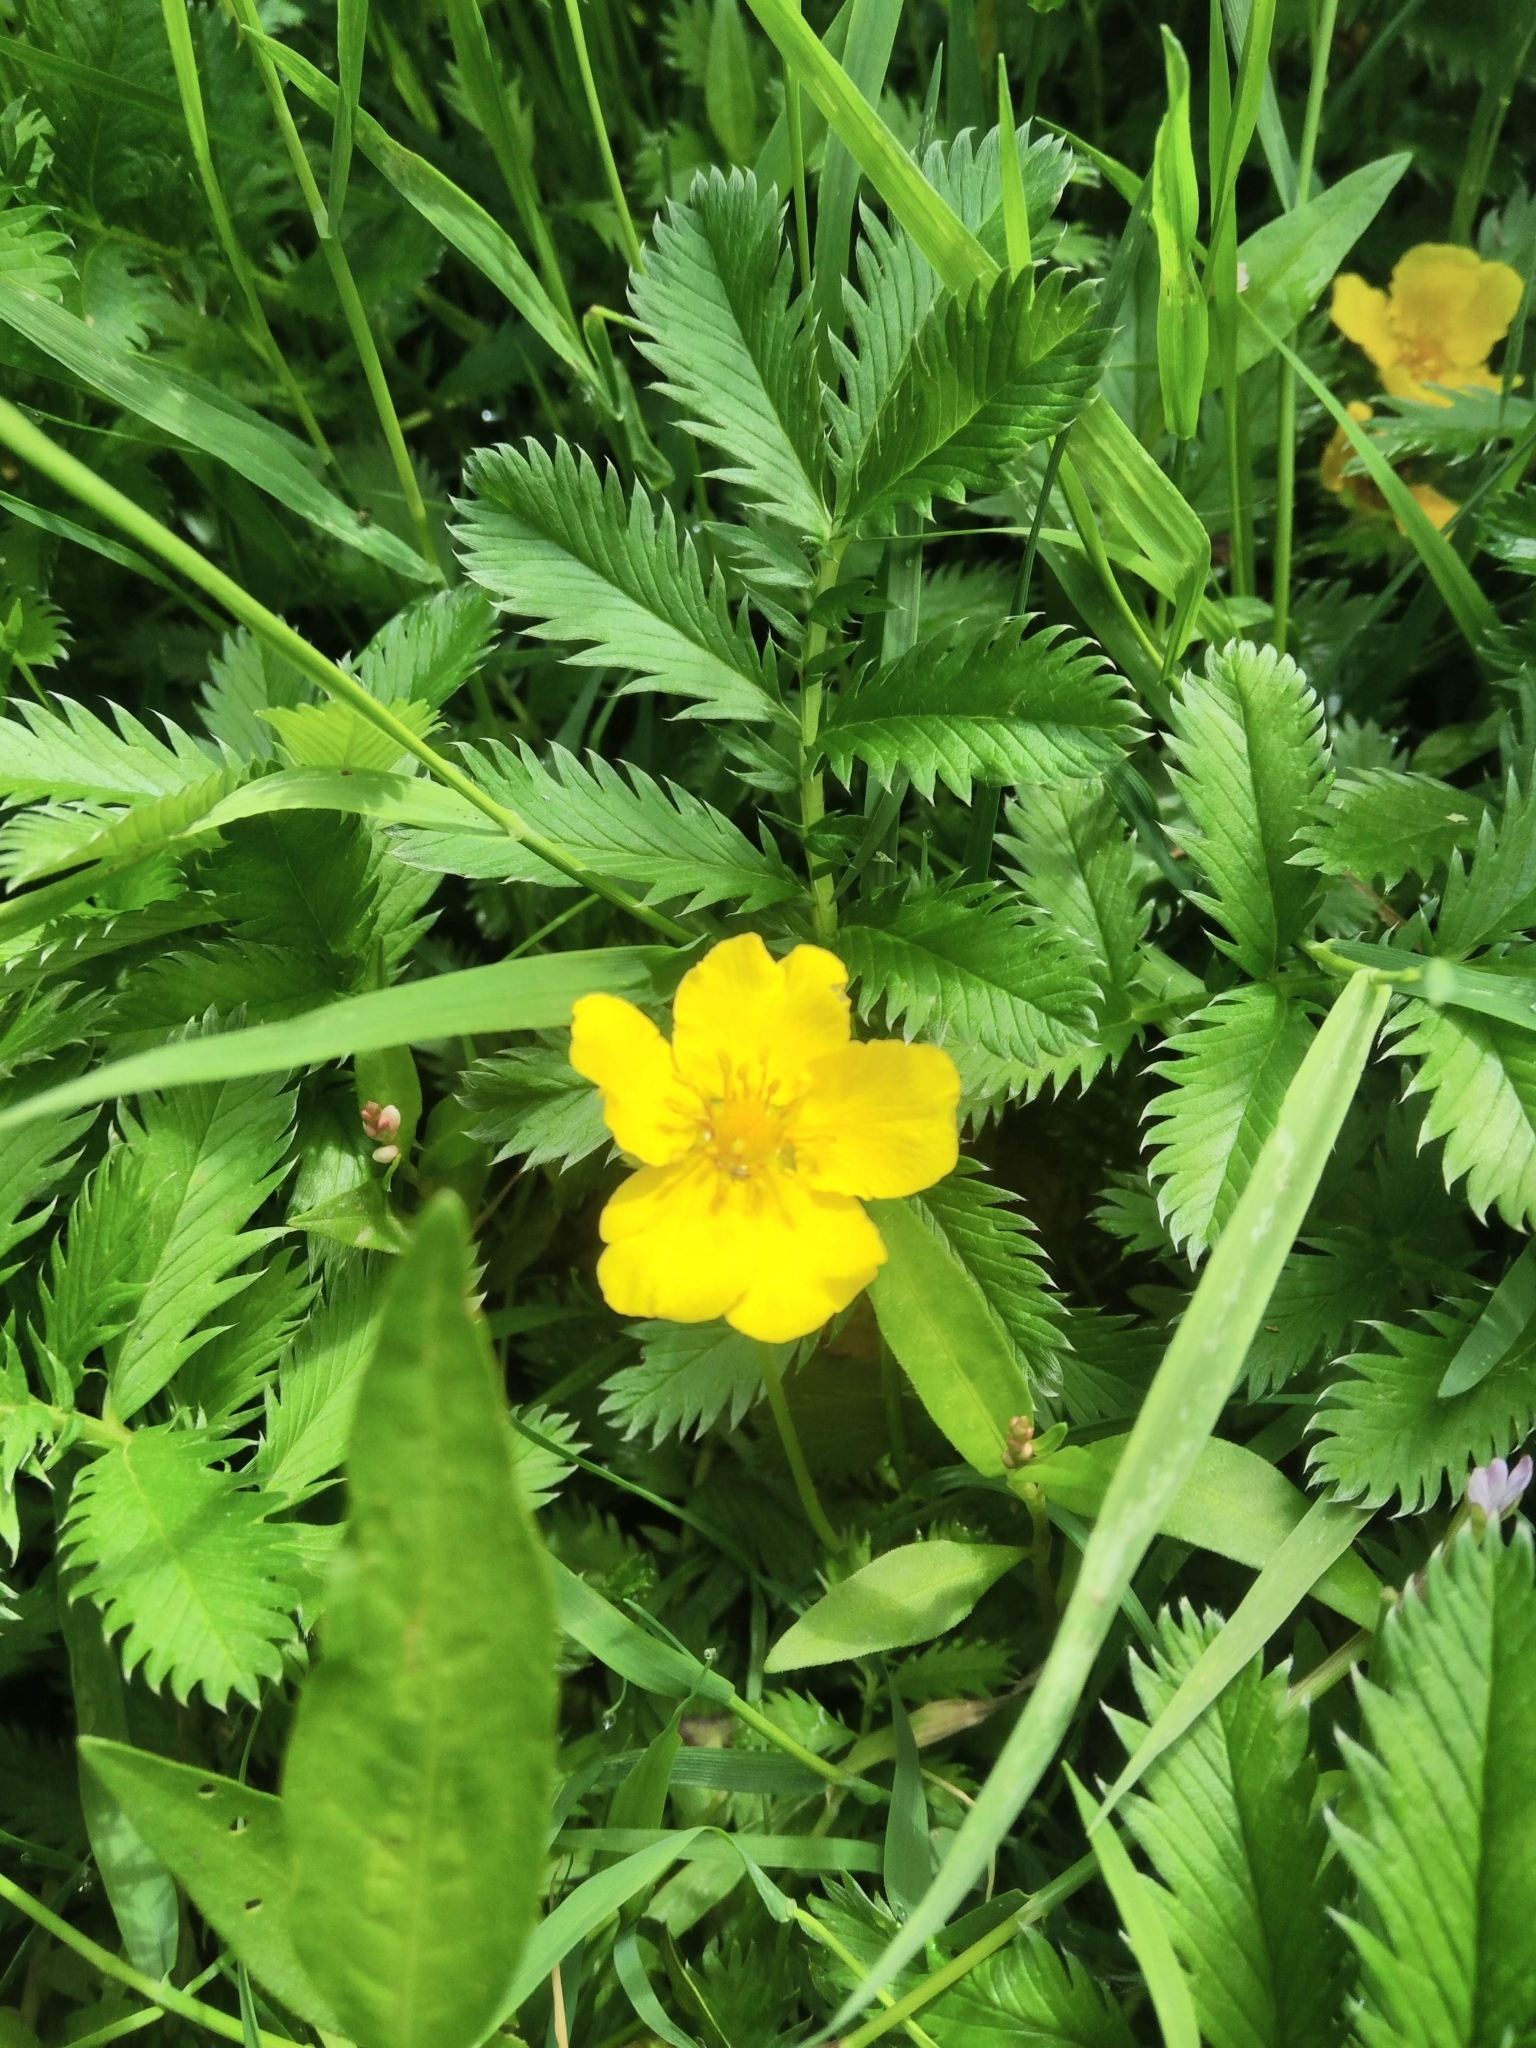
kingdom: Plantae
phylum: Tracheophyta
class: Magnoliopsida
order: Rosales
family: Rosaceae
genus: Argentina
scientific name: Argentina anserina
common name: Common silverweed
